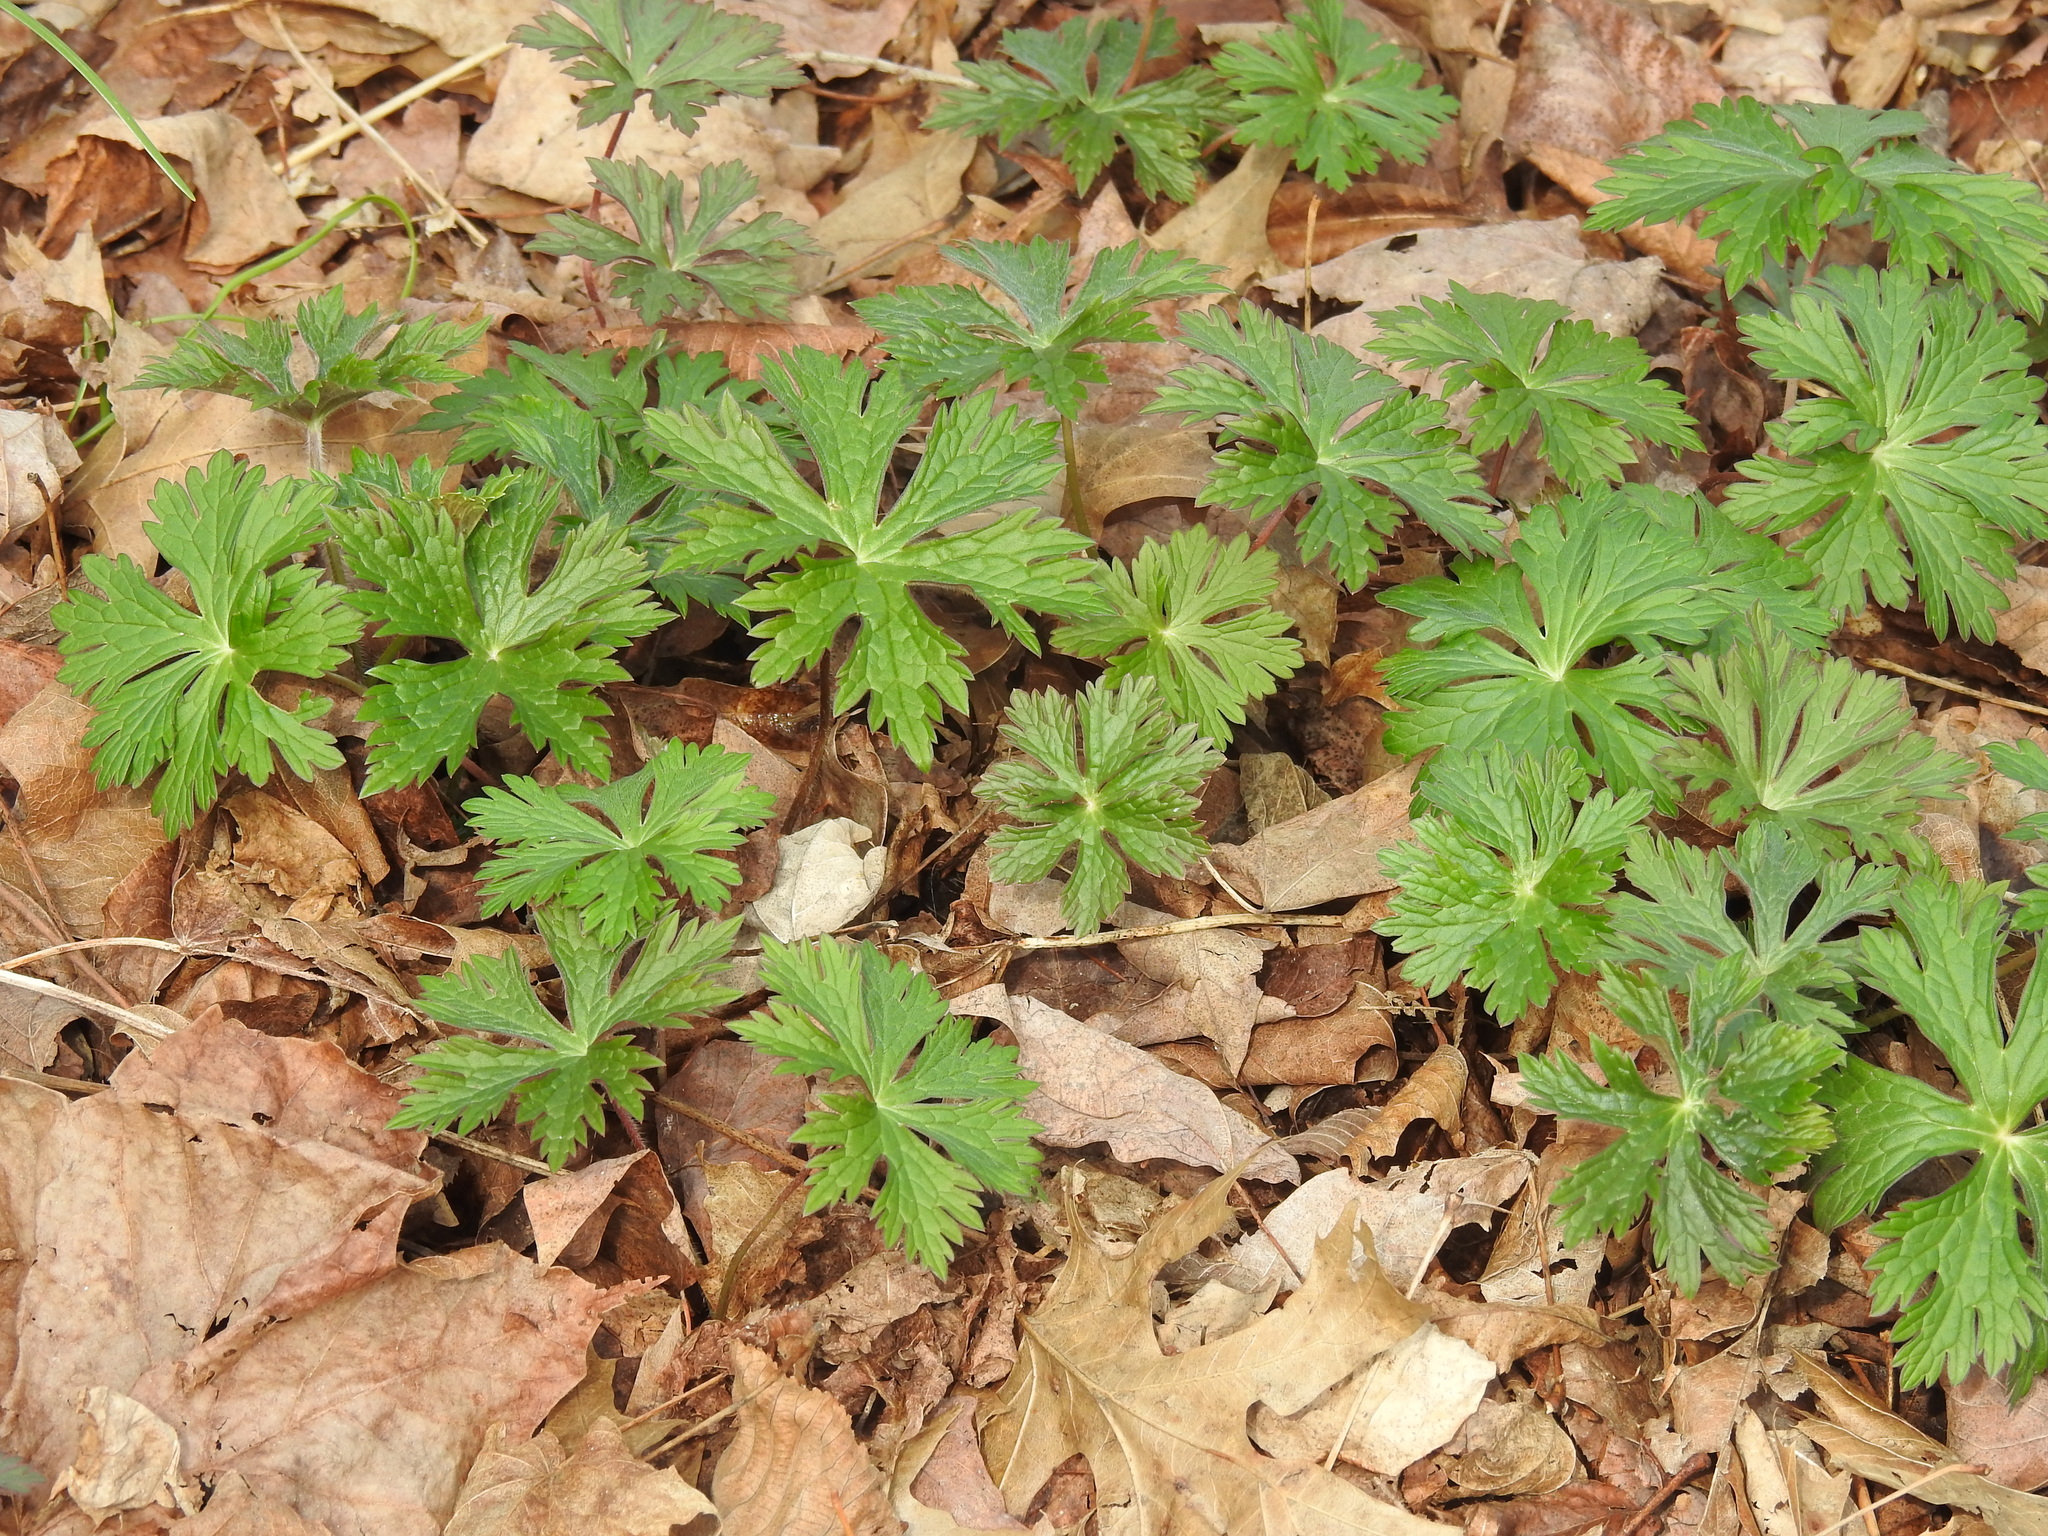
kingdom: Plantae
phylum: Tracheophyta
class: Magnoliopsida
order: Geraniales
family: Geraniaceae
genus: Geranium
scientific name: Geranium maculatum
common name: Spotted geranium
